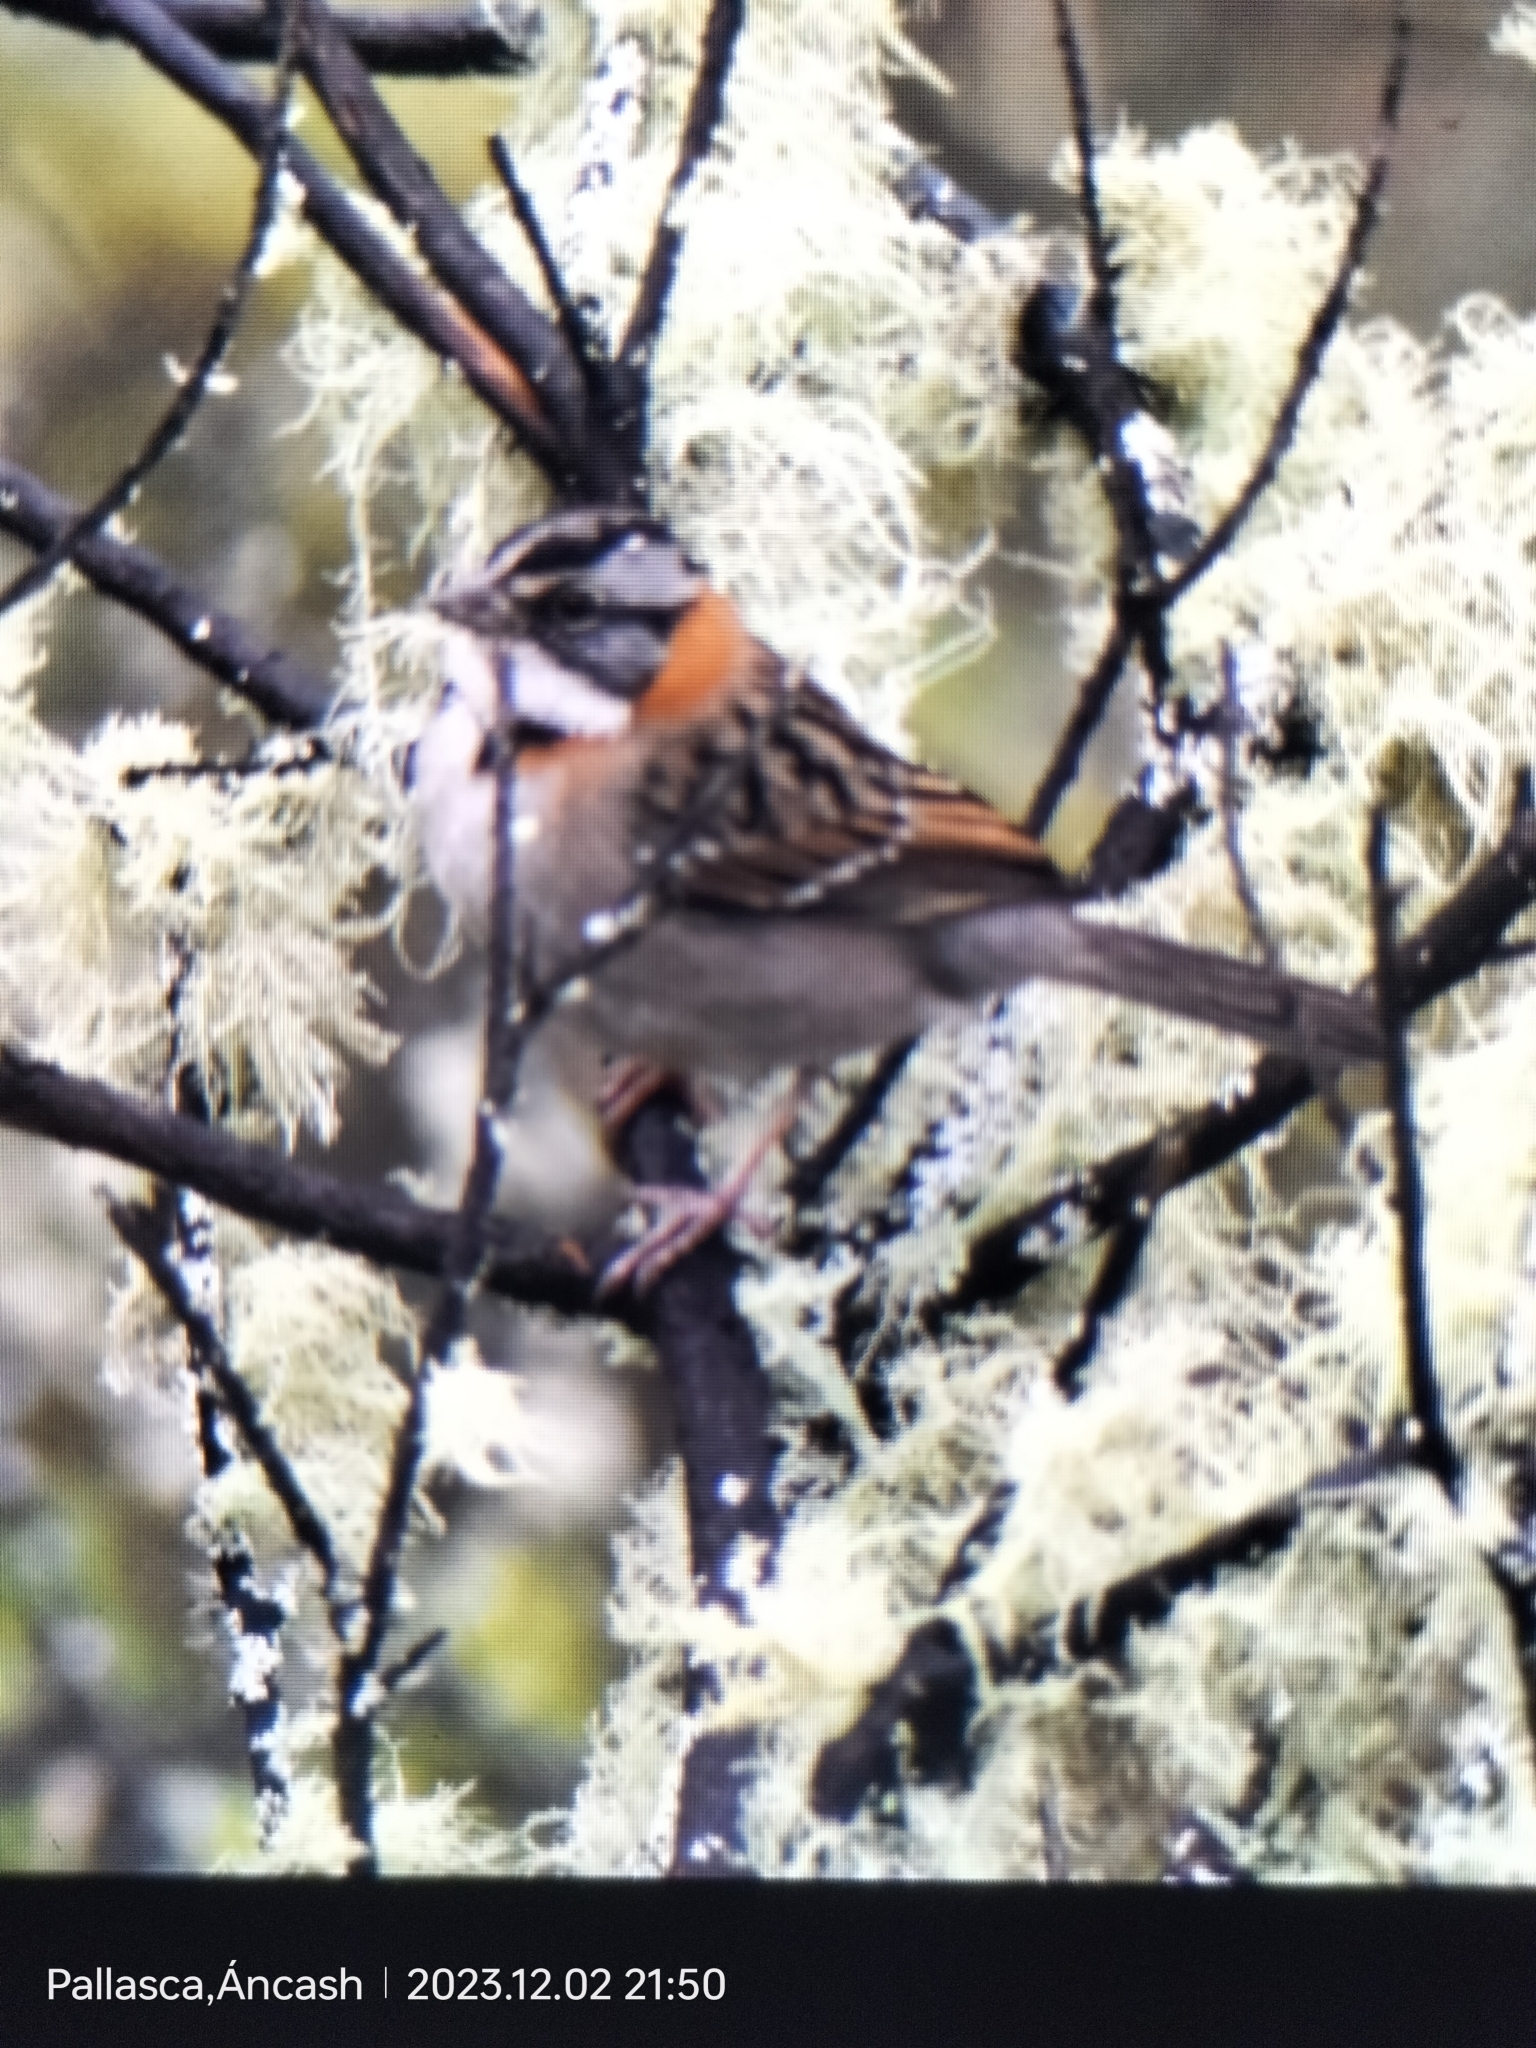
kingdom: Animalia
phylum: Chordata
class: Aves
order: Passeriformes
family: Passerellidae
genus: Zonotrichia
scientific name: Zonotrichia capensis
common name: Rufous-collared sparrow
